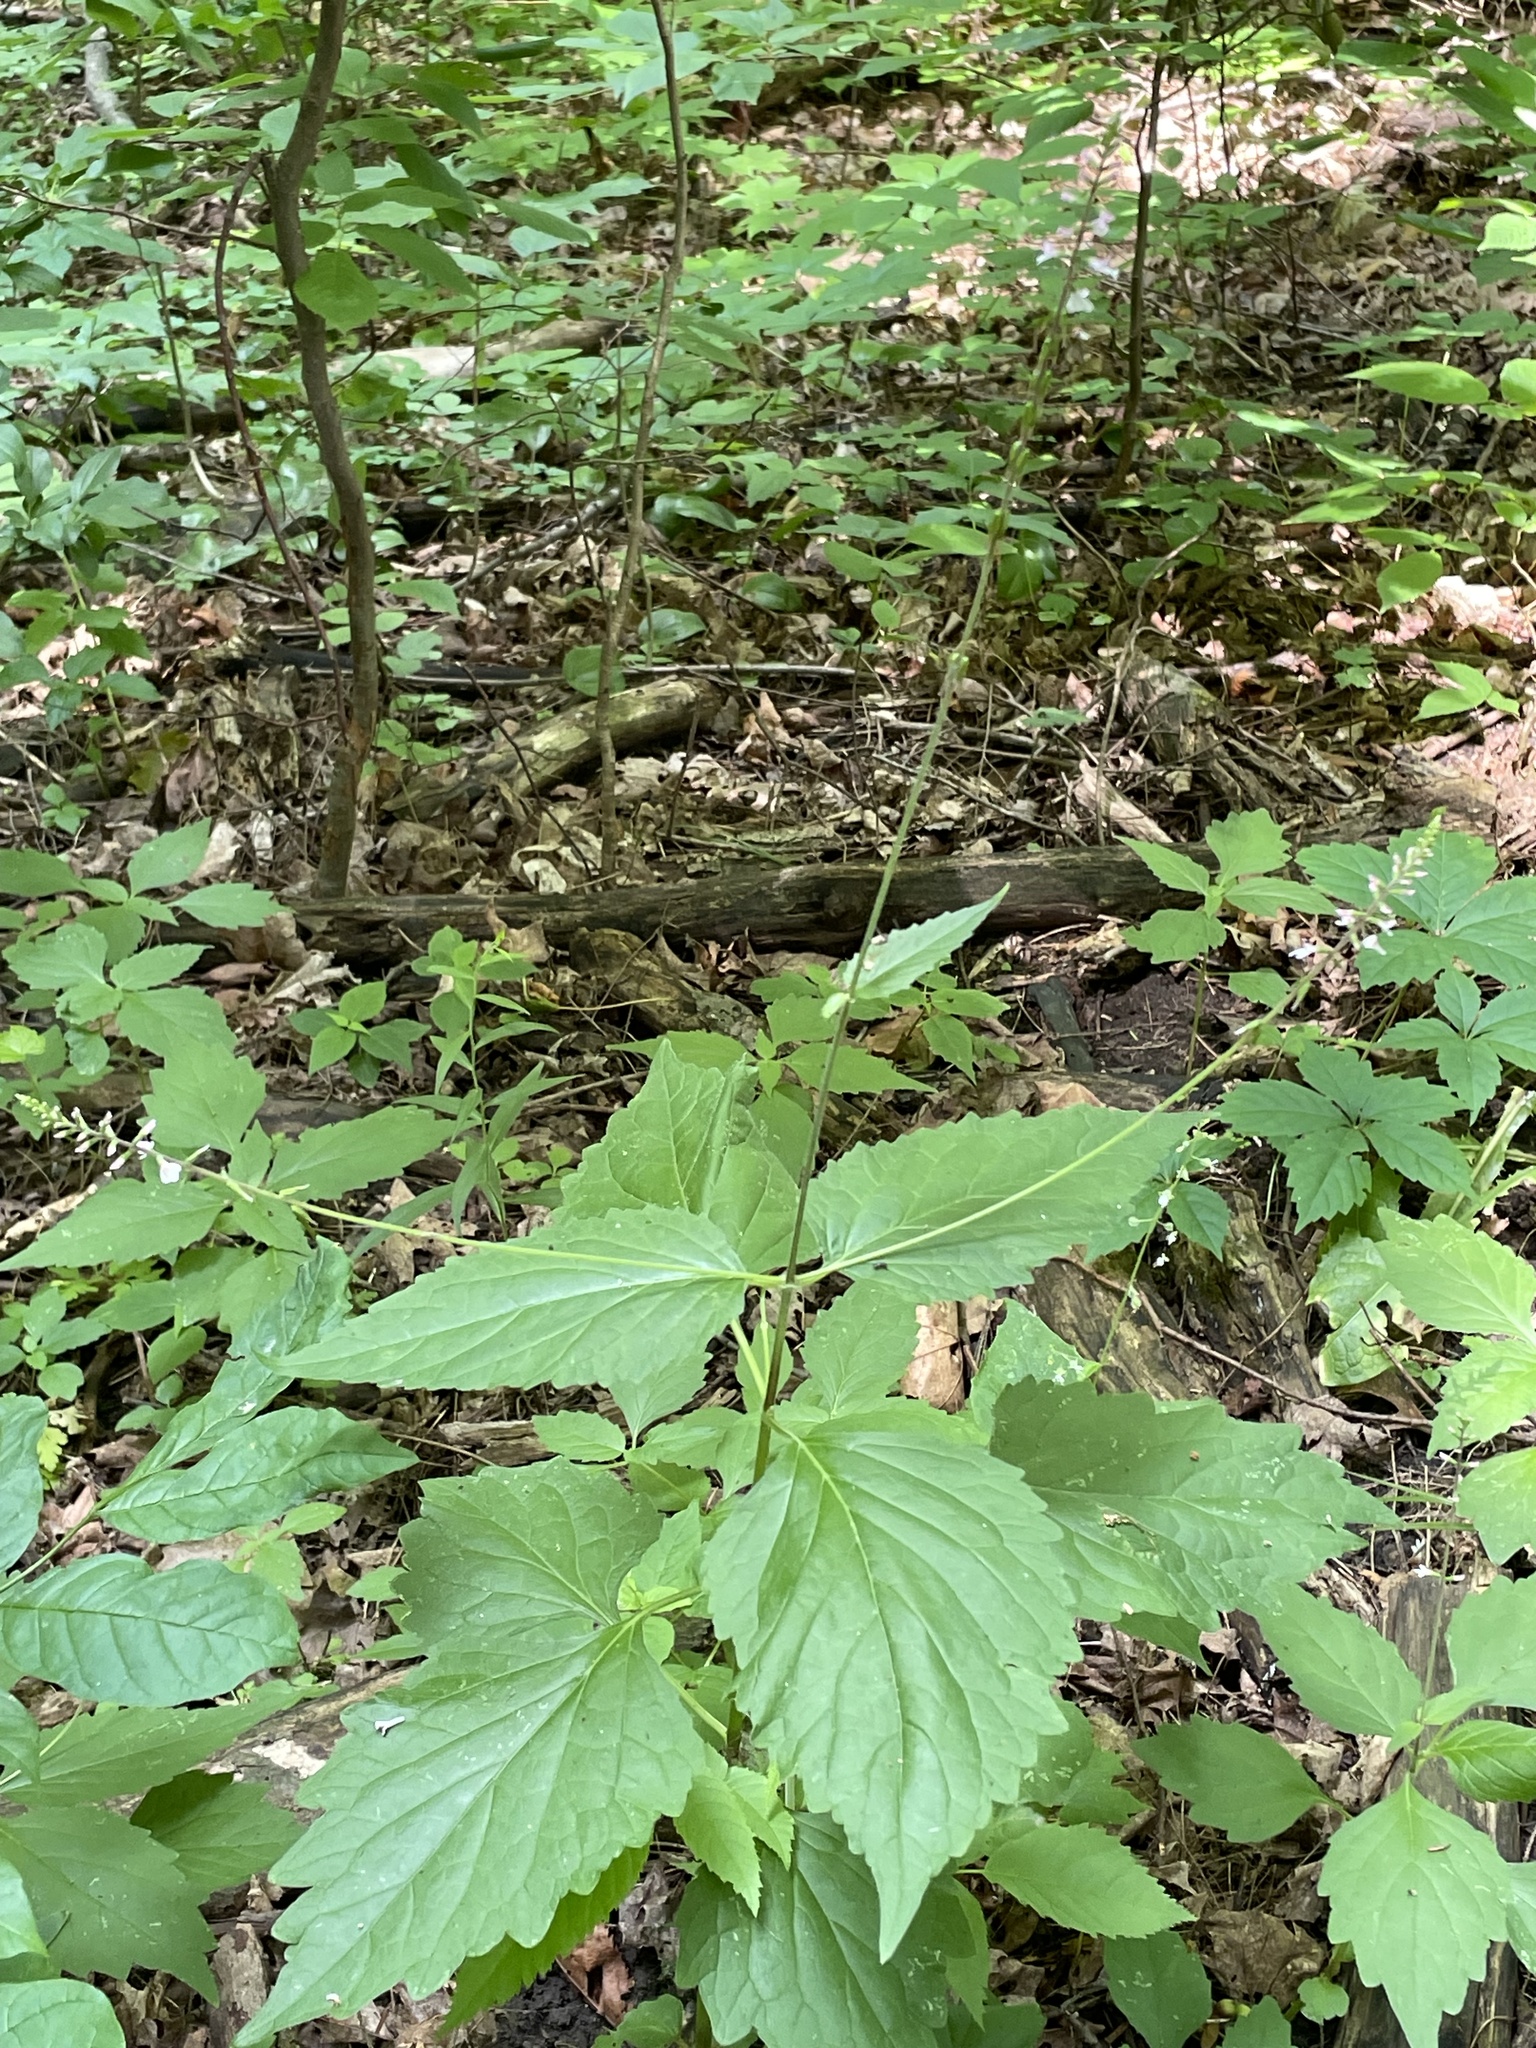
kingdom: Plantae
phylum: Tracheophyta
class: Magnoliopsida
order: Lamiales
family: Phrymaceae
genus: Phryma
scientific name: Phryma leptostachya
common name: American lopseed
